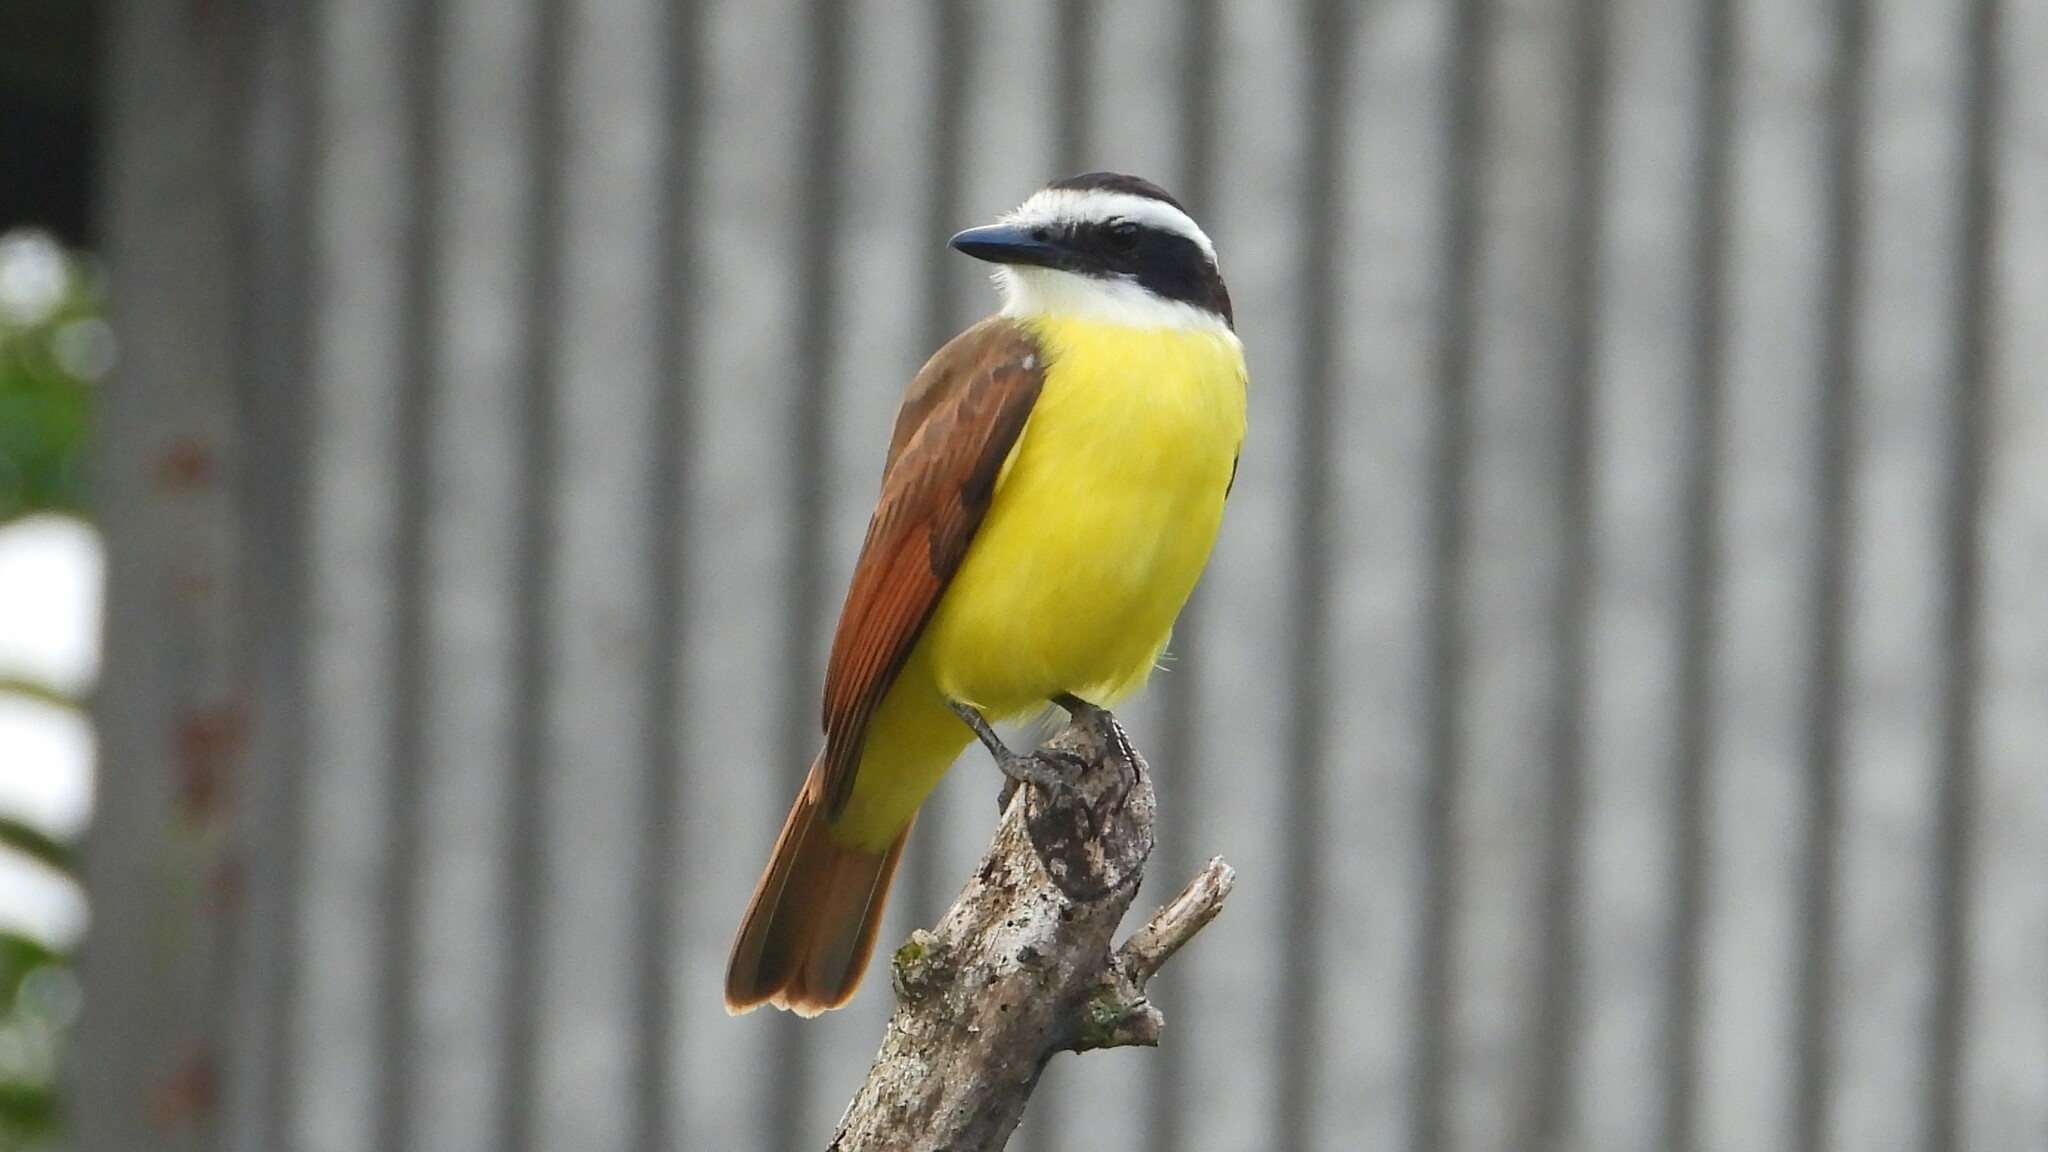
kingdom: Animalia
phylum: Chordata
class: Aves
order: Passeriformes
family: Tyrannidae
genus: Pitangus
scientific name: Pitangus sulphuratus
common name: Great kiskadee
